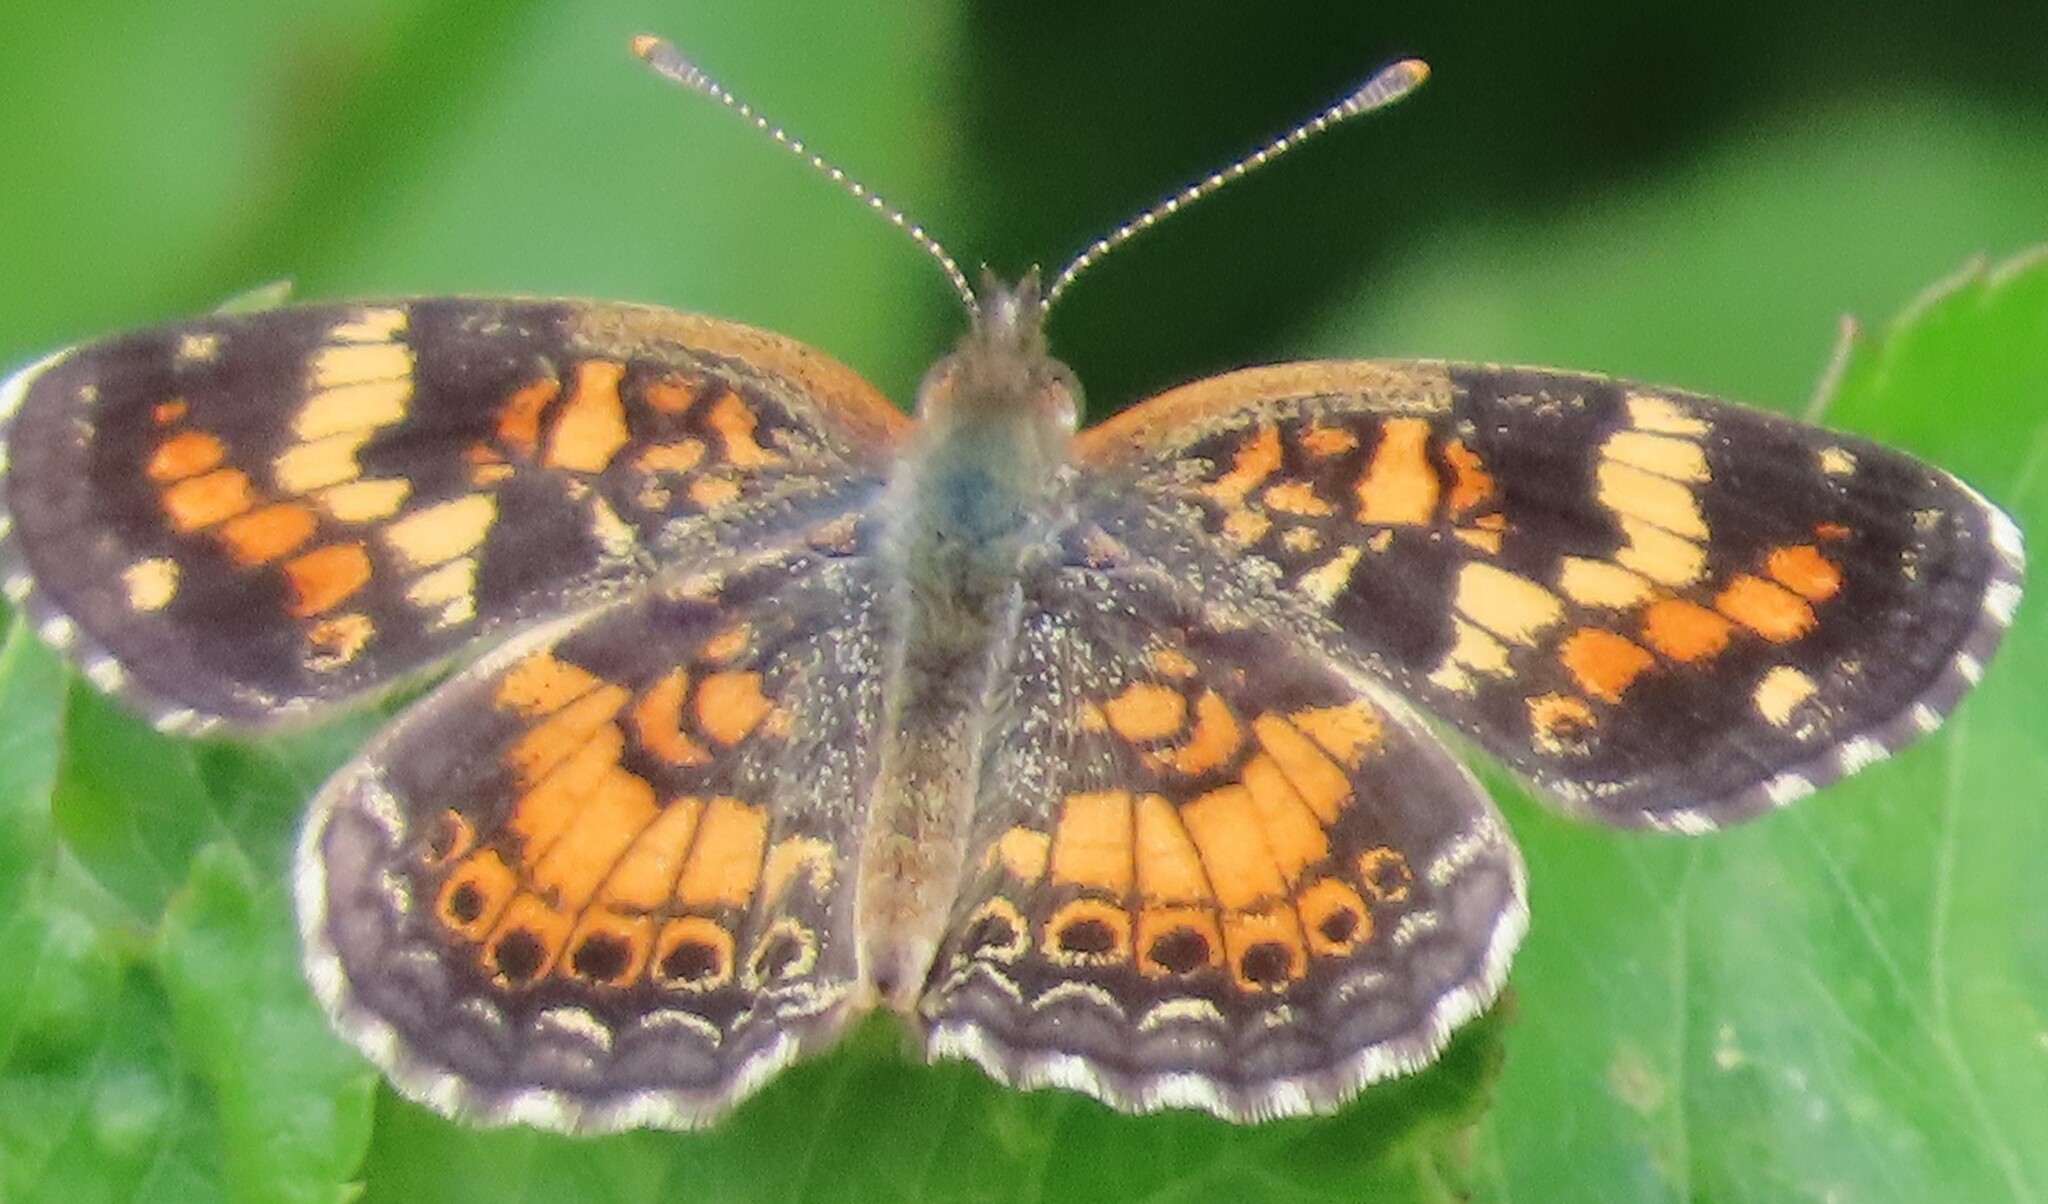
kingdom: Animalia
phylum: Arthropoda
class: Insecta
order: Lepidoptera
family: Nymphalidae
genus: Phyciodes
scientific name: Phyciodes phaon
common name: Phaon crescent
